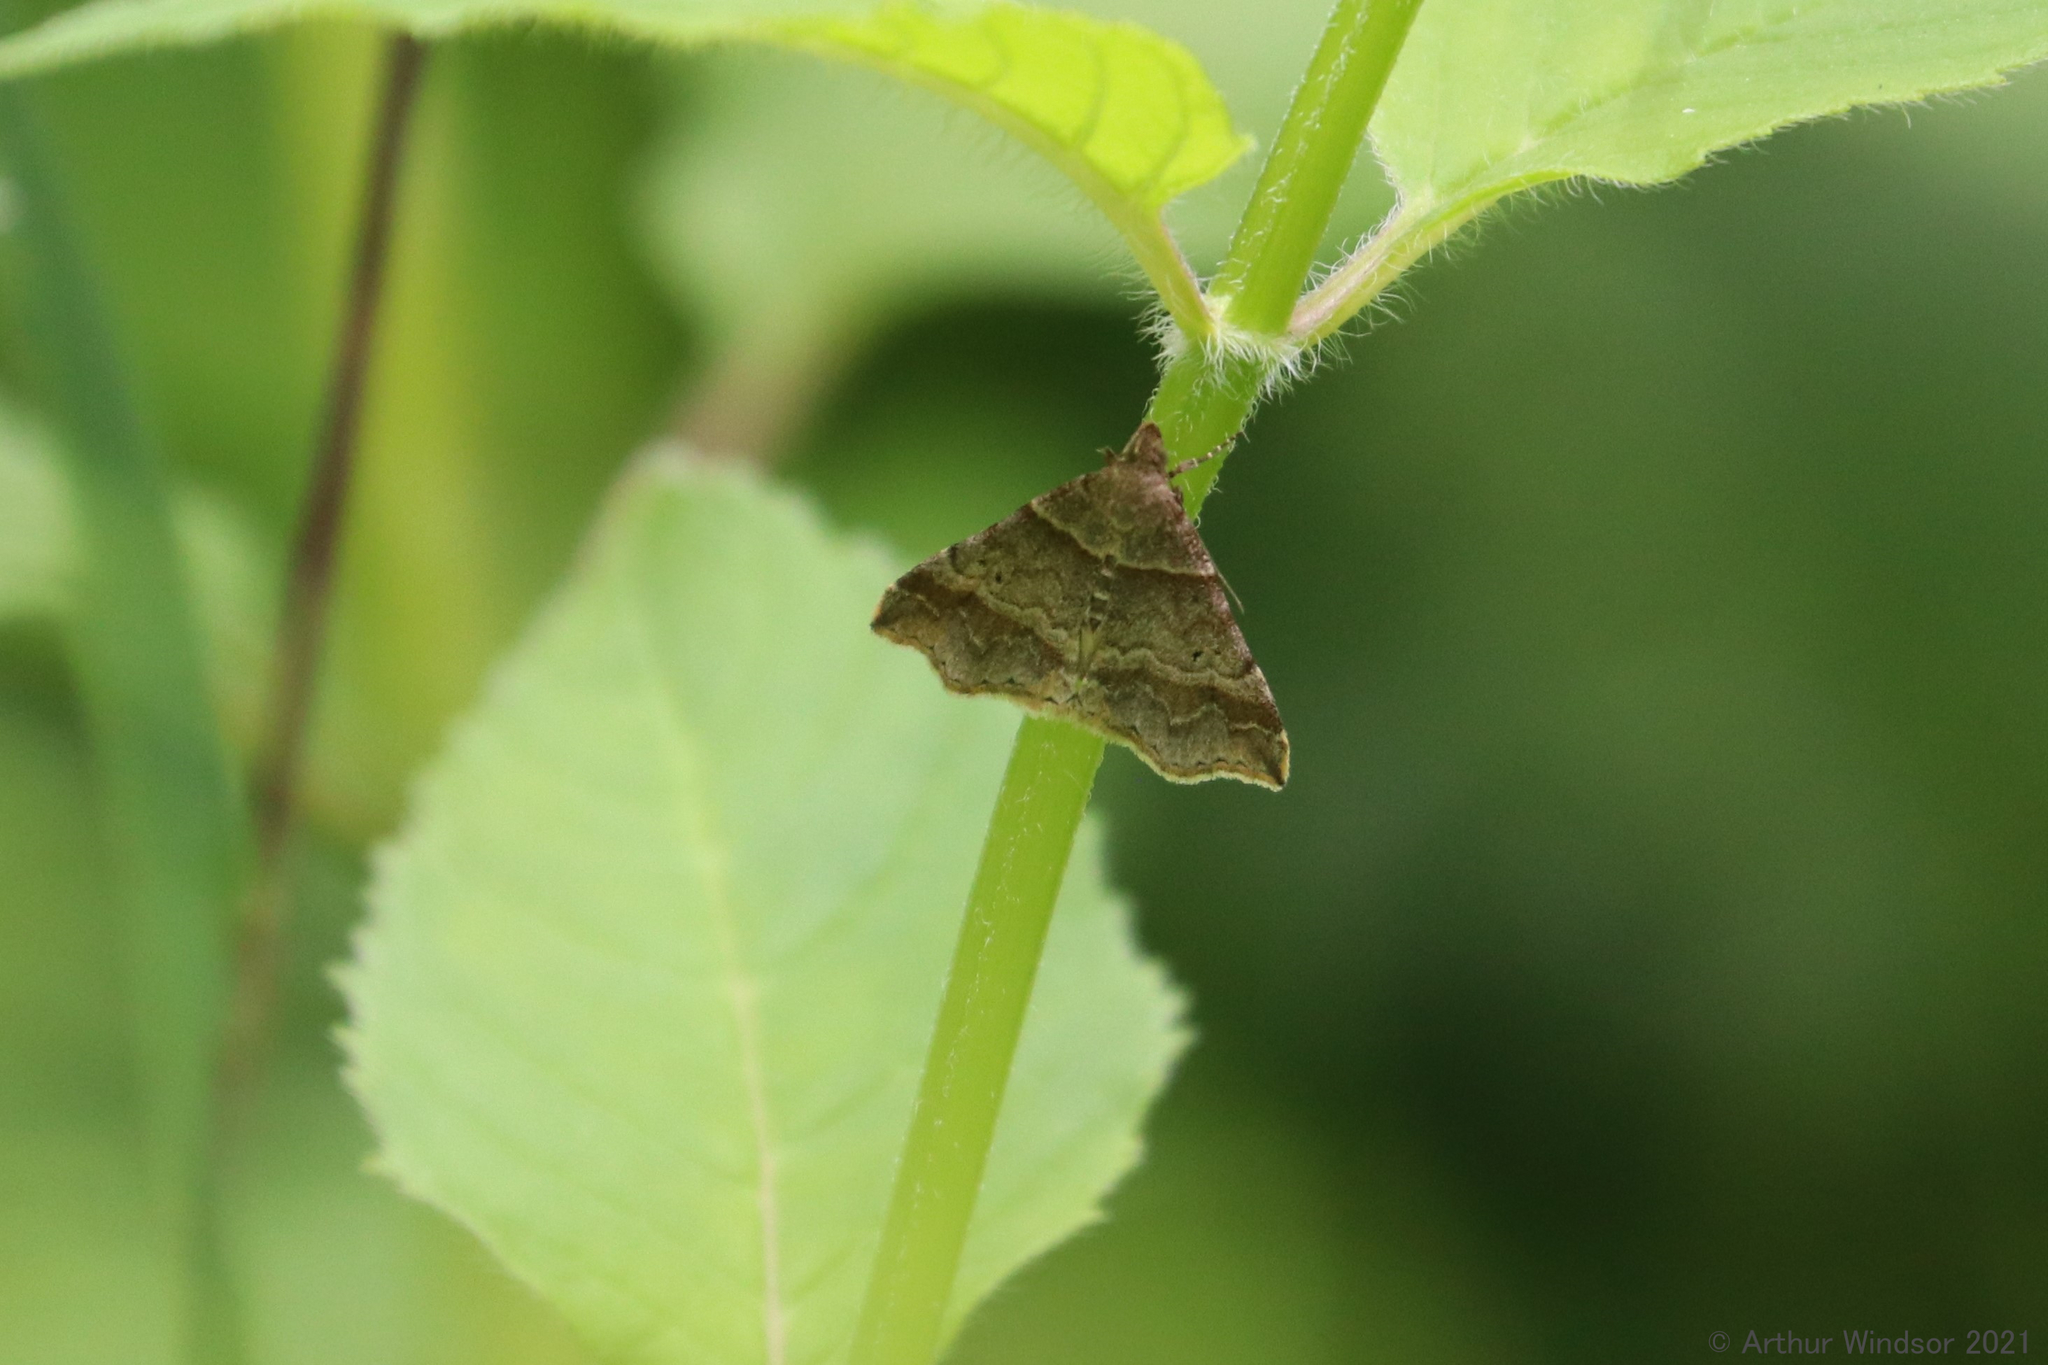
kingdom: Animalia
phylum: Arthropoda
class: Insecta
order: Lepidoptera
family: Erebidae
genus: Phaeolita
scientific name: Phaeolita pyramusalis
